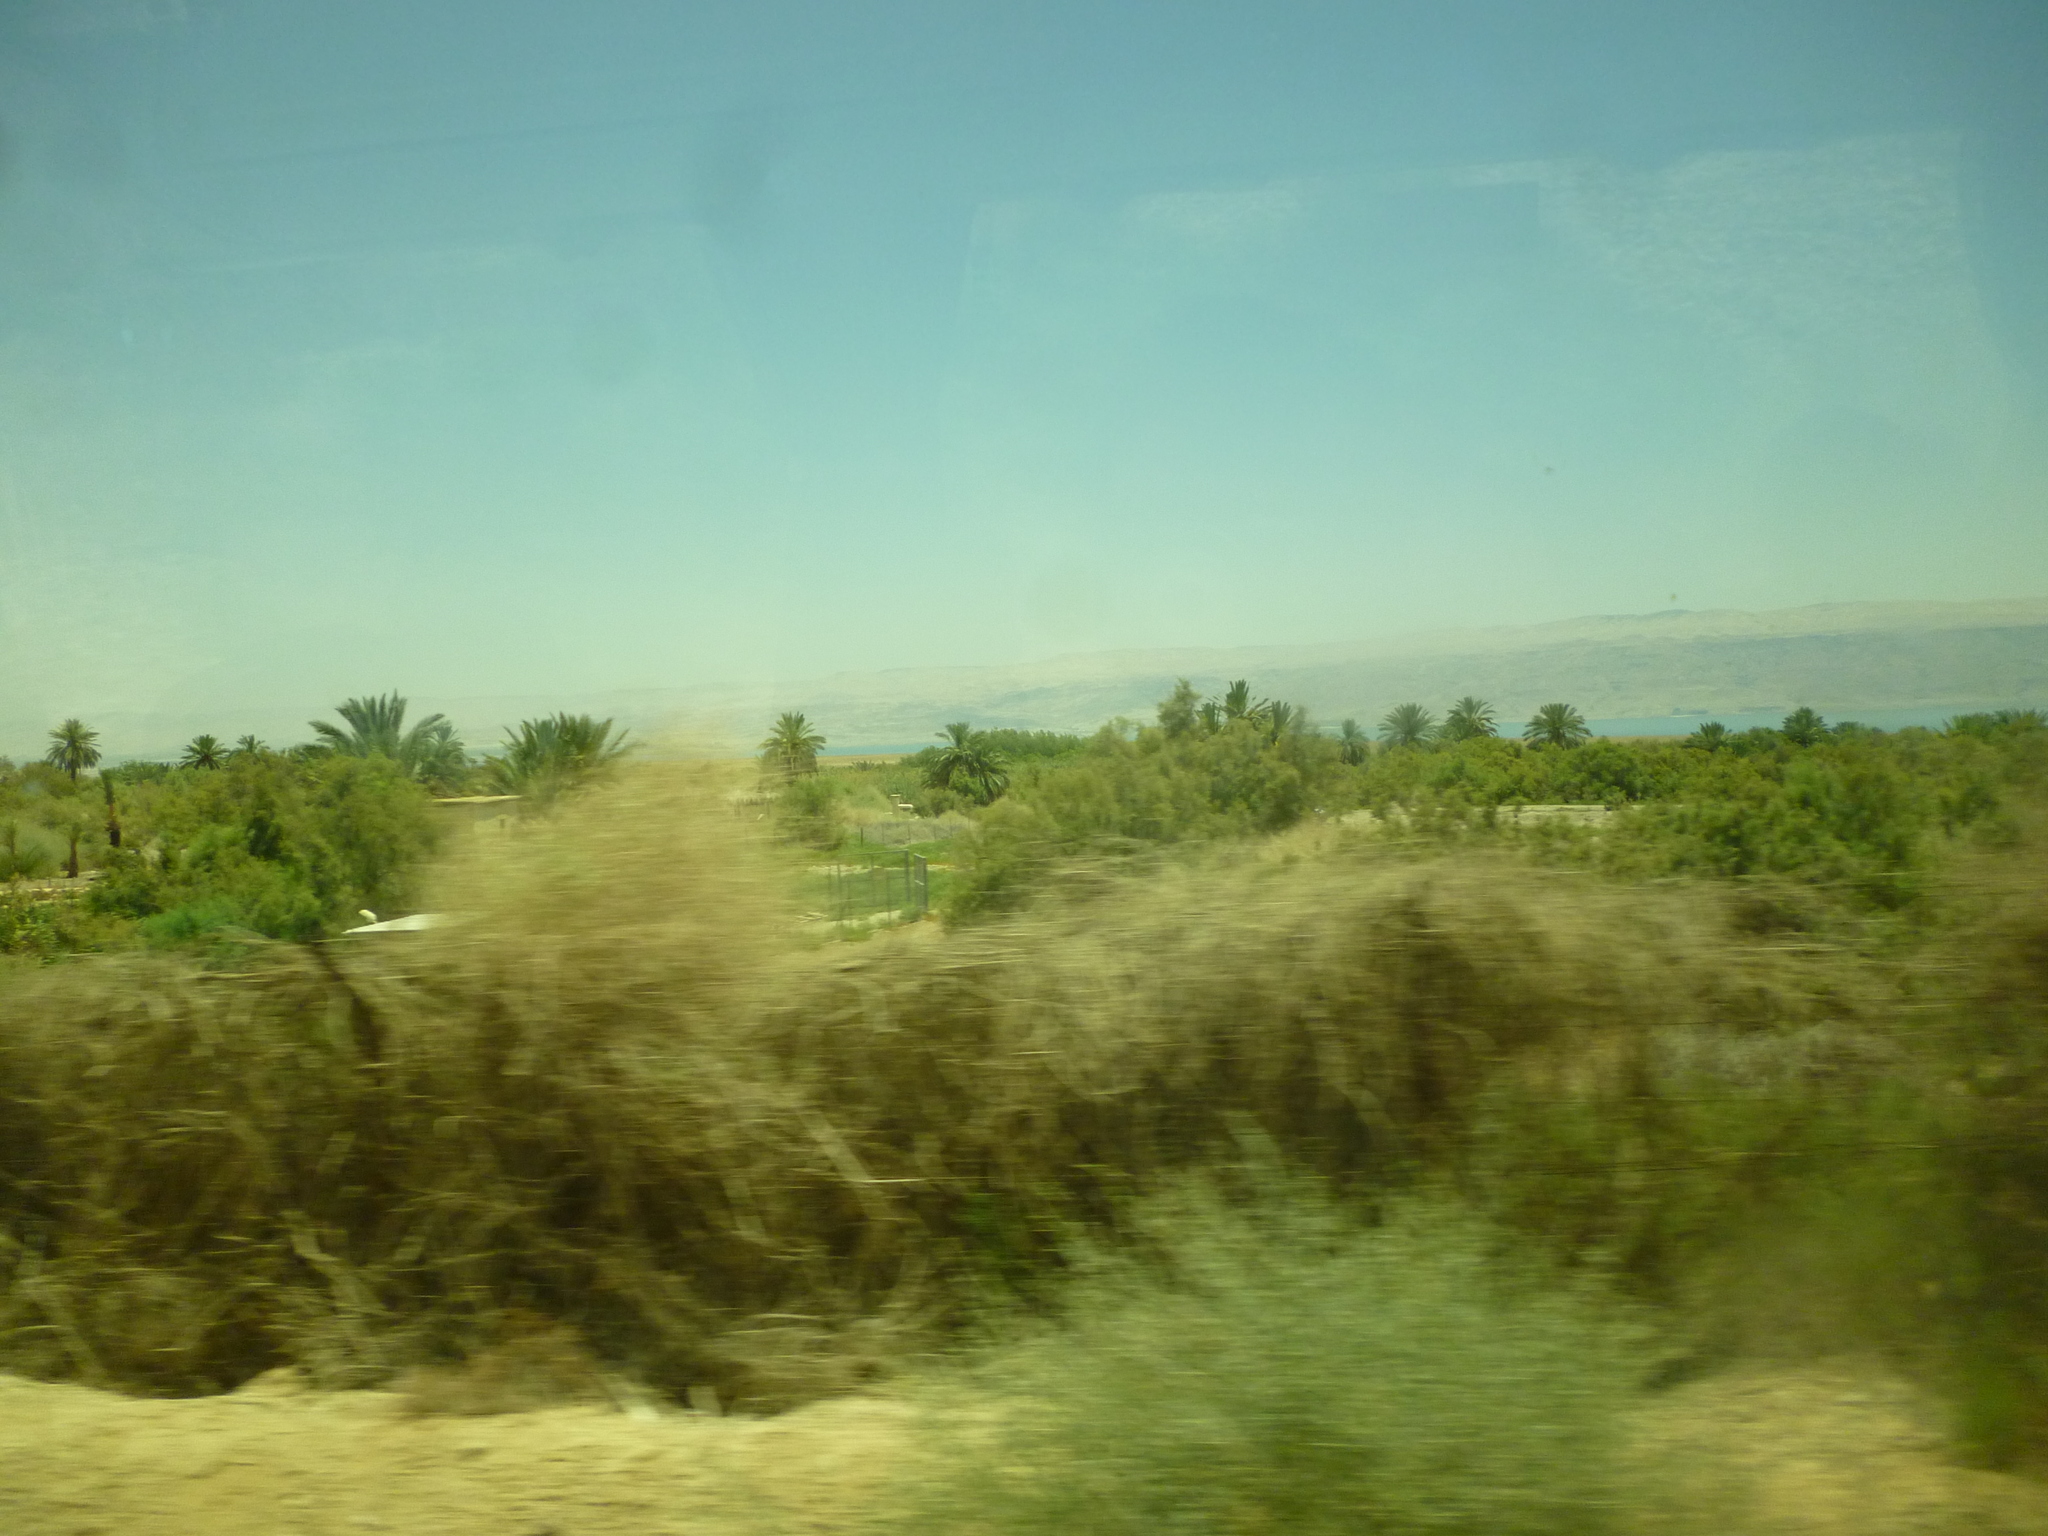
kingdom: Plantae
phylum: Tracheophyta
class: Liliopsida
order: Arecales
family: Arecaceae
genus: Phoenix
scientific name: Phoenix dactylifera
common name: Date palm
